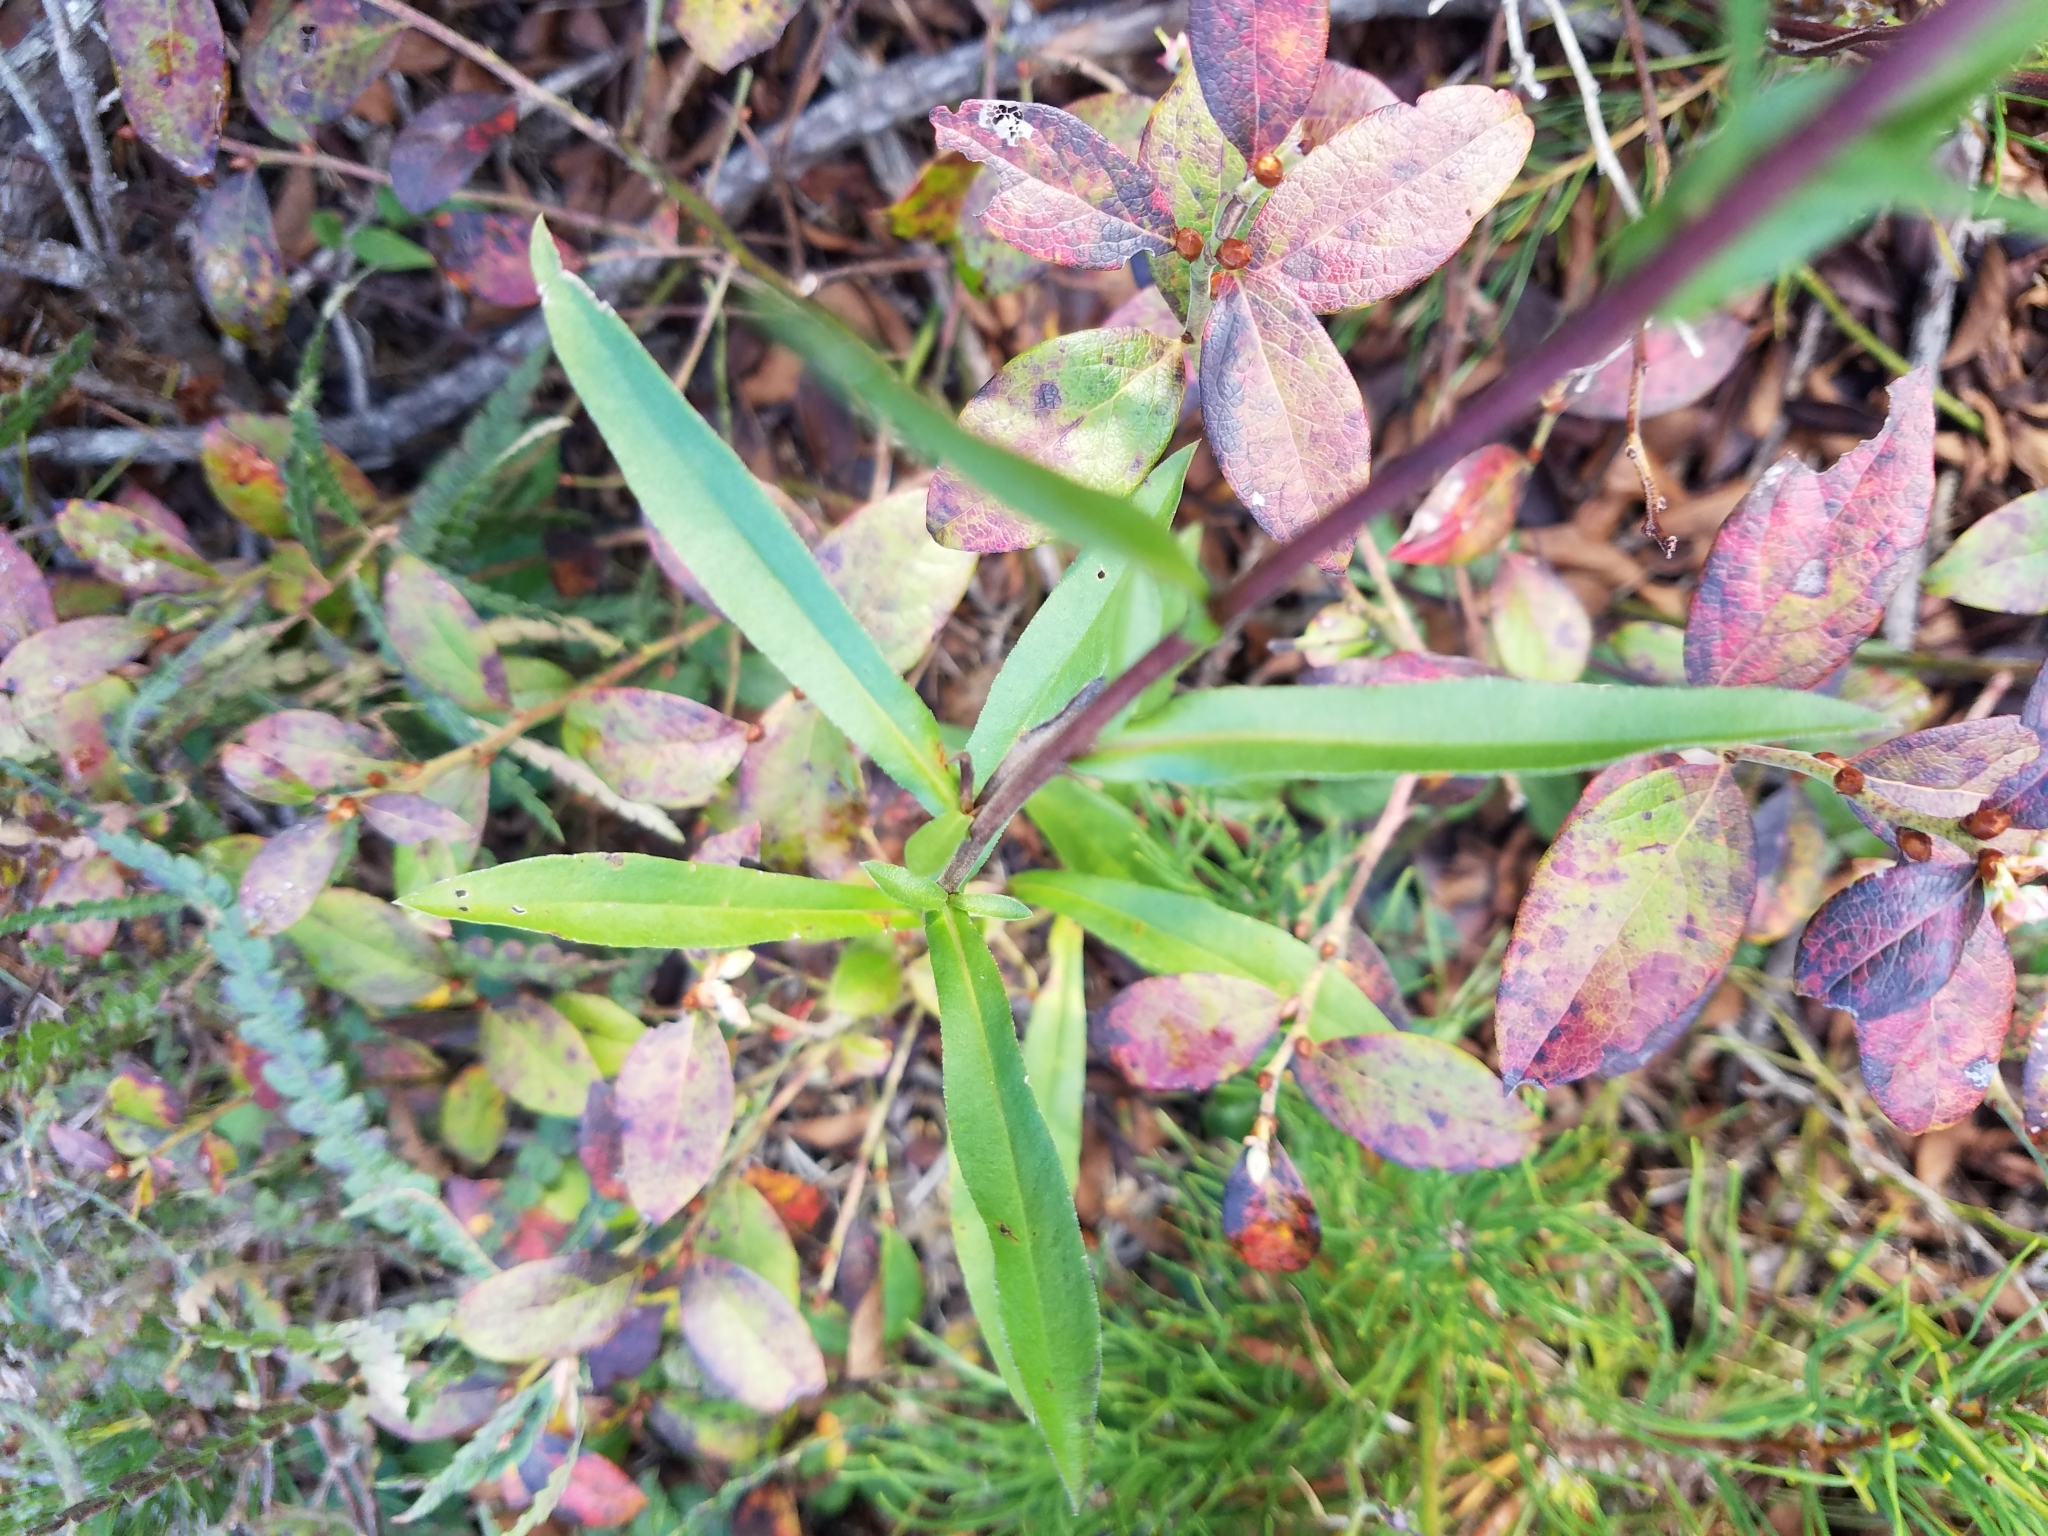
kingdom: Plantae
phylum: Tracheophyta
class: Magnoliopsida
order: Asterales
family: Asteraceae
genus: Eurybia
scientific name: Eurybia spectabilis
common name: Low showy aster
